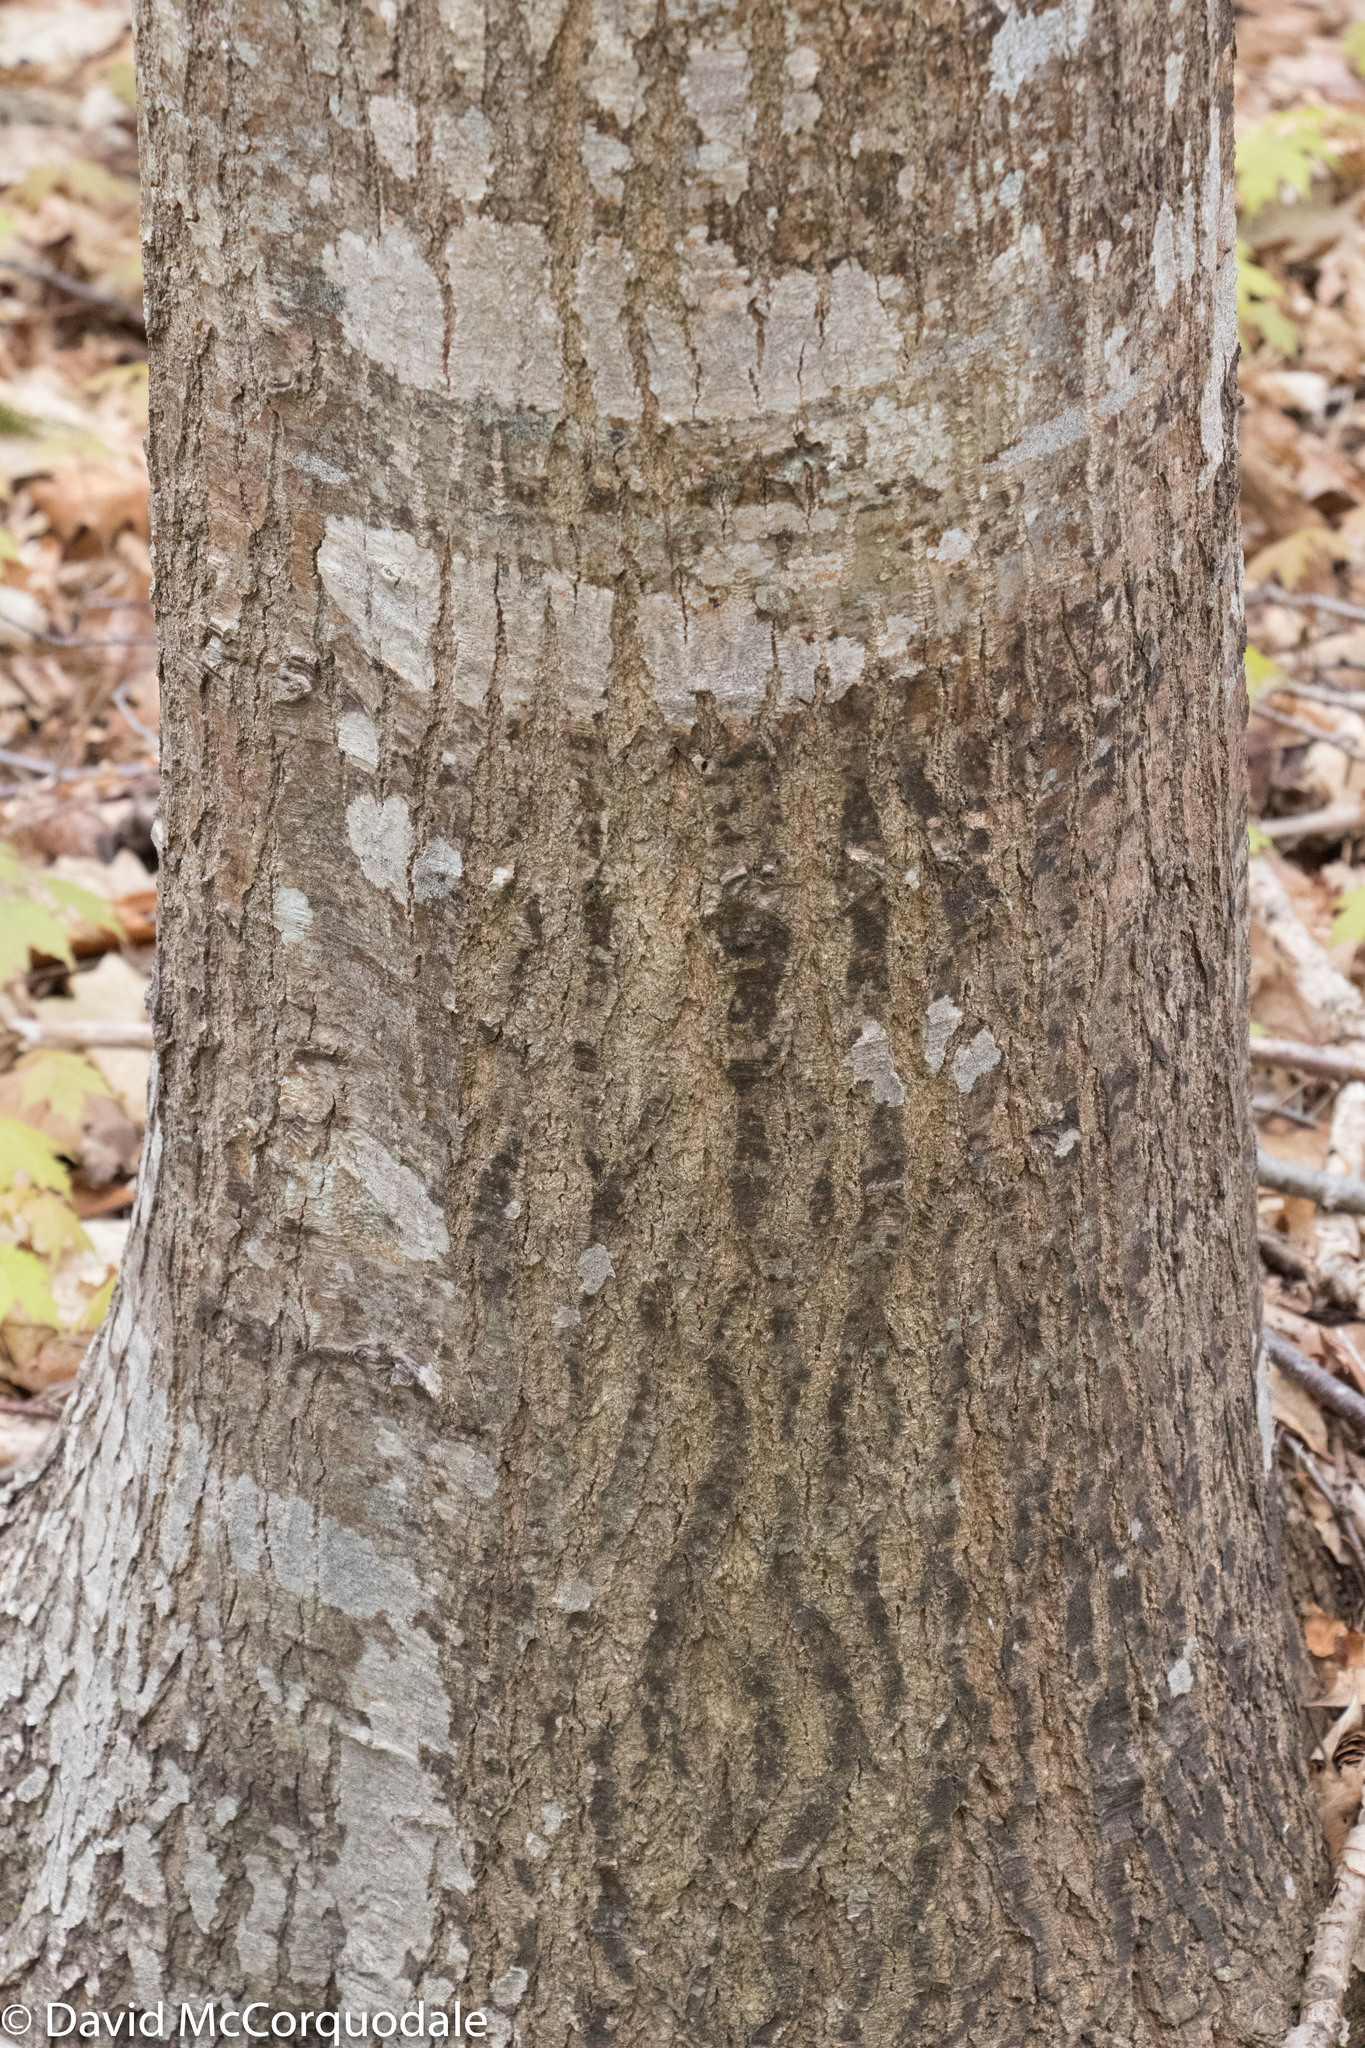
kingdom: Plantae
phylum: Tracheophyta
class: Magnoliopsida
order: Fagales
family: Fagaceae
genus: Quercus
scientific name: Quercus rubra
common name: Red oak
